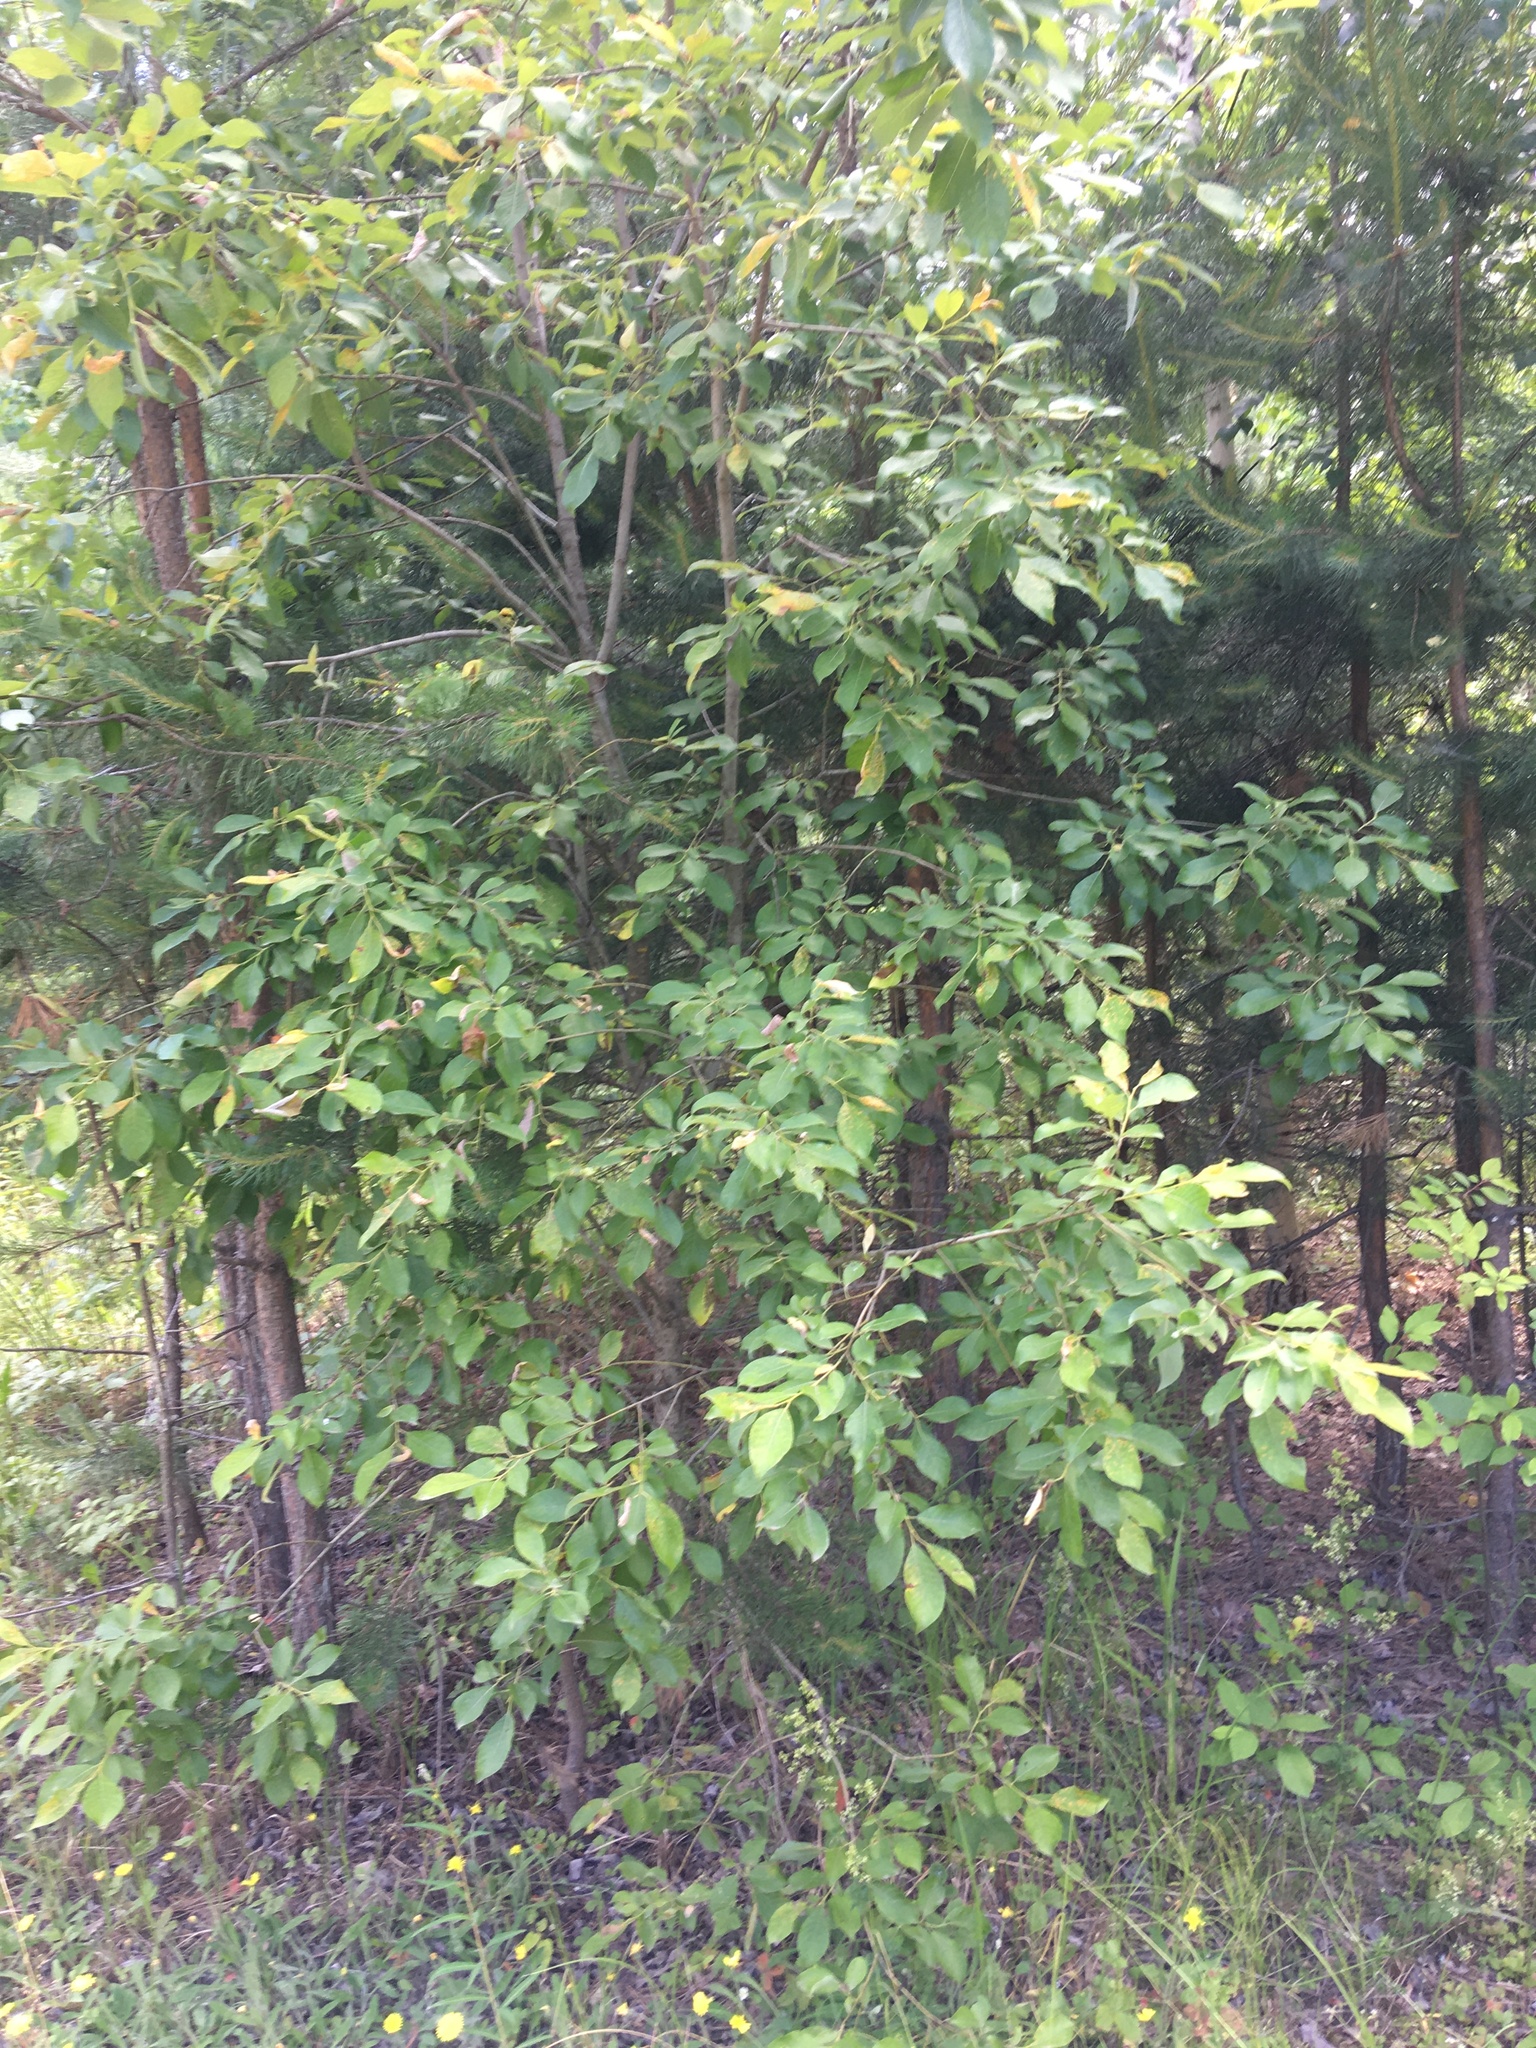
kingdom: Plantae
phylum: Tracheophyta
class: Magnoliopsida
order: Malpighiales
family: Salicaceae
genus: Salix
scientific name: Salix caprea
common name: Goat willow
